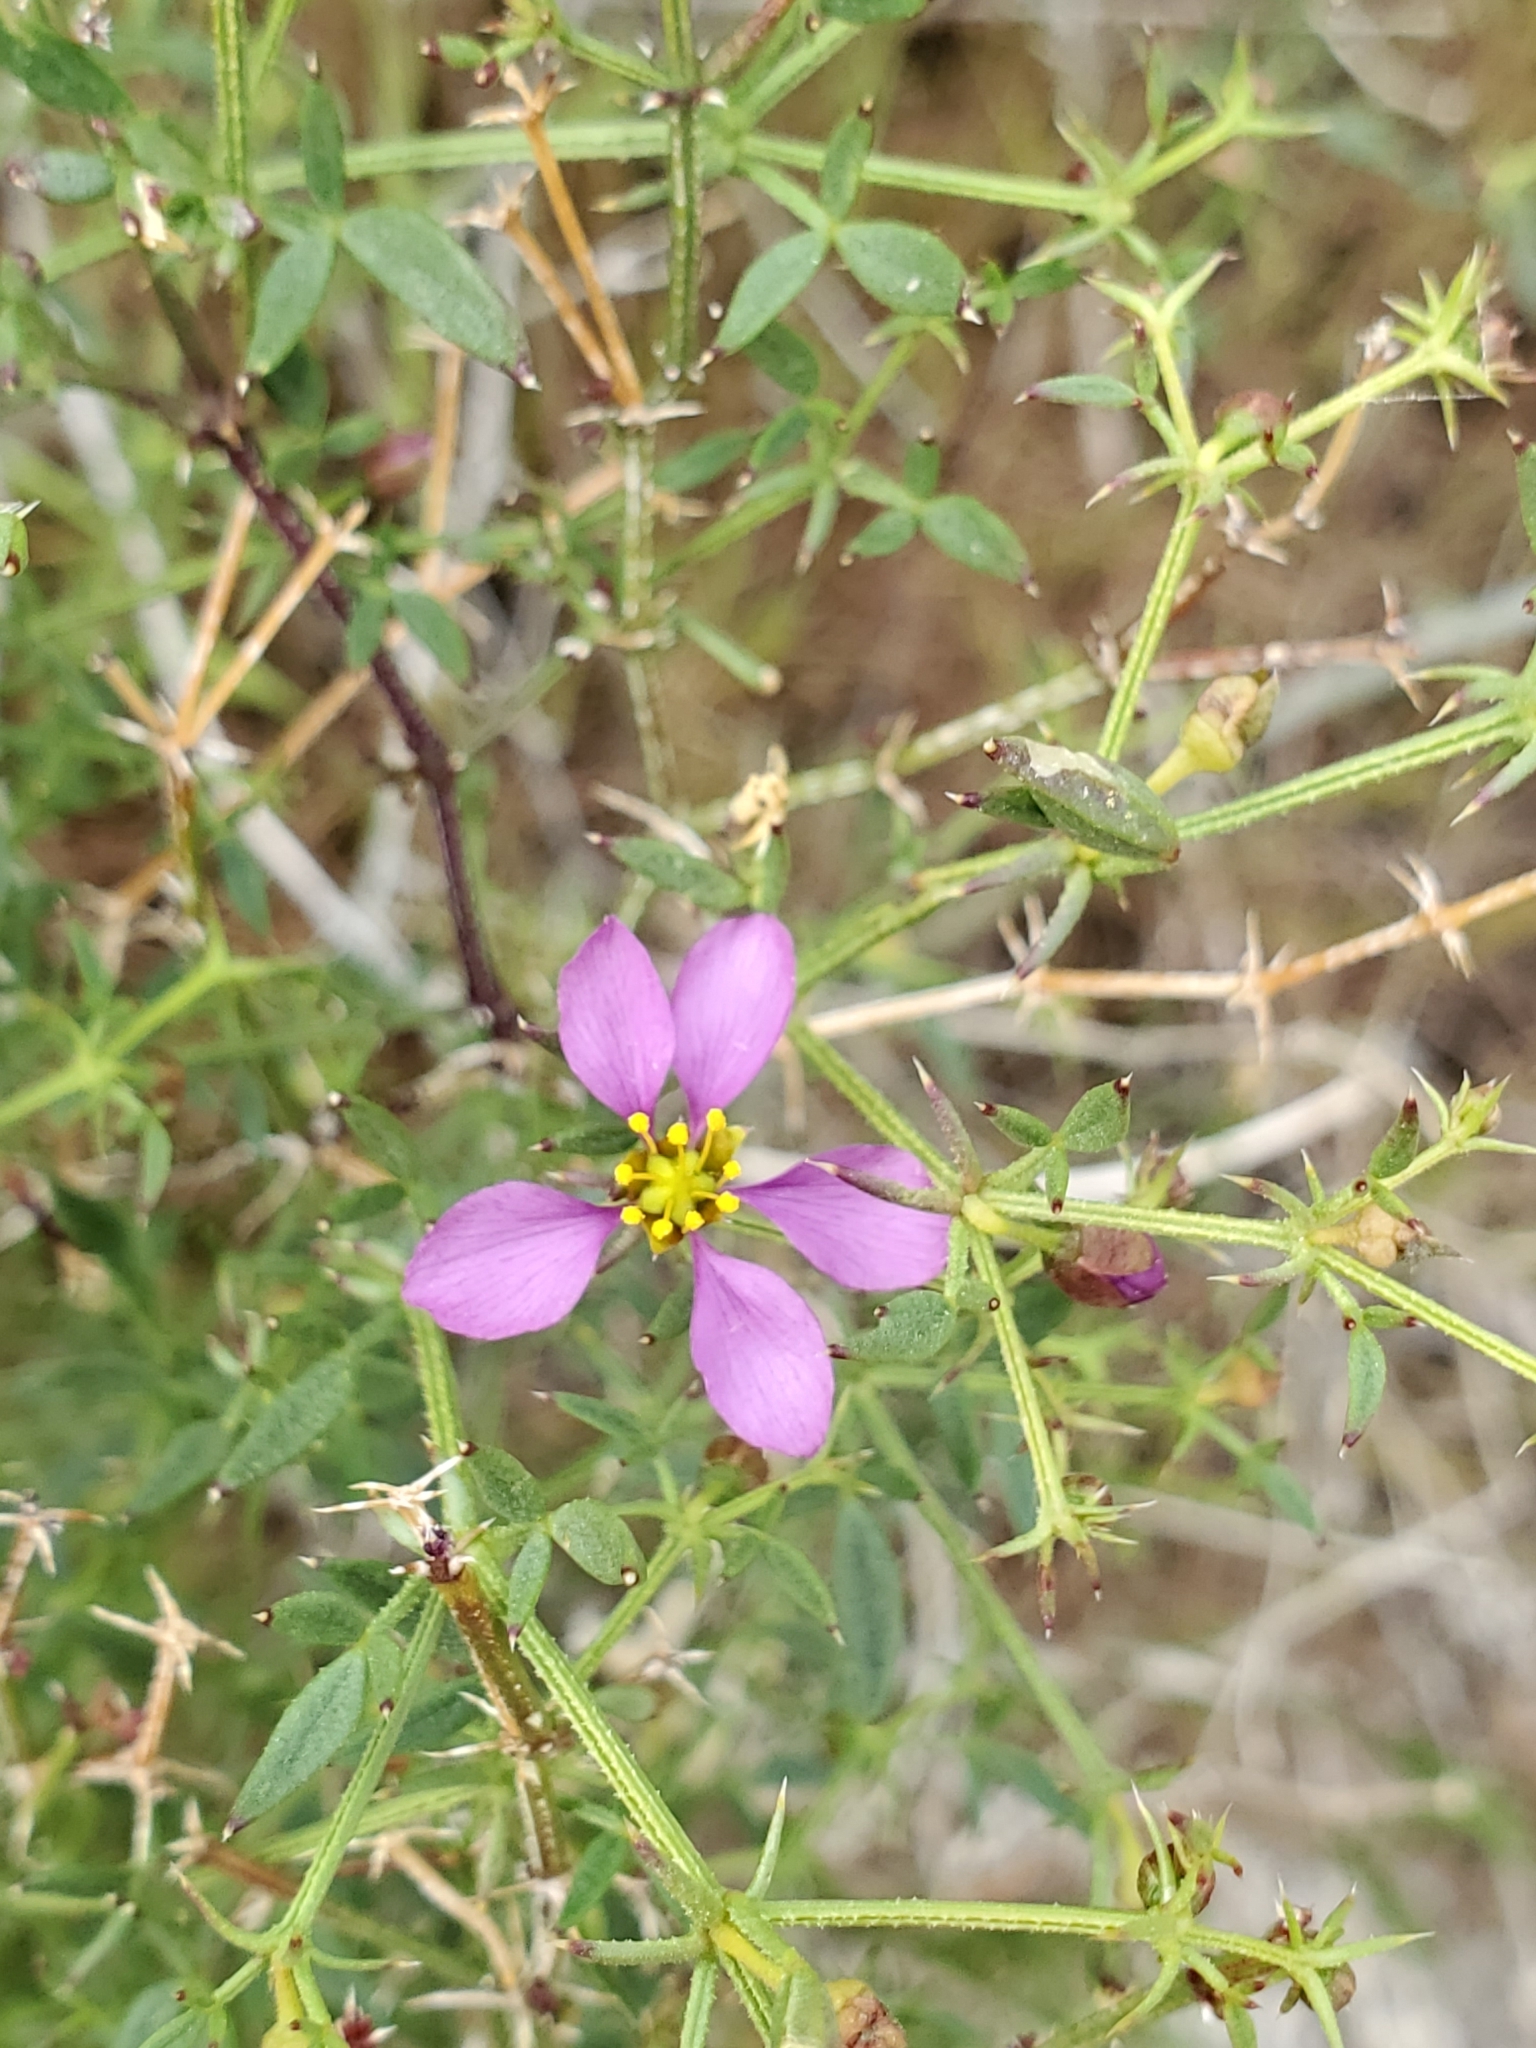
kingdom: Plantae
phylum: Tracheophyta
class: Magnoliopsida
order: Zygophyllales
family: Zygophyllaceae
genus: Fagonia
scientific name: Fagonia laevis
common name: California fagonbush
